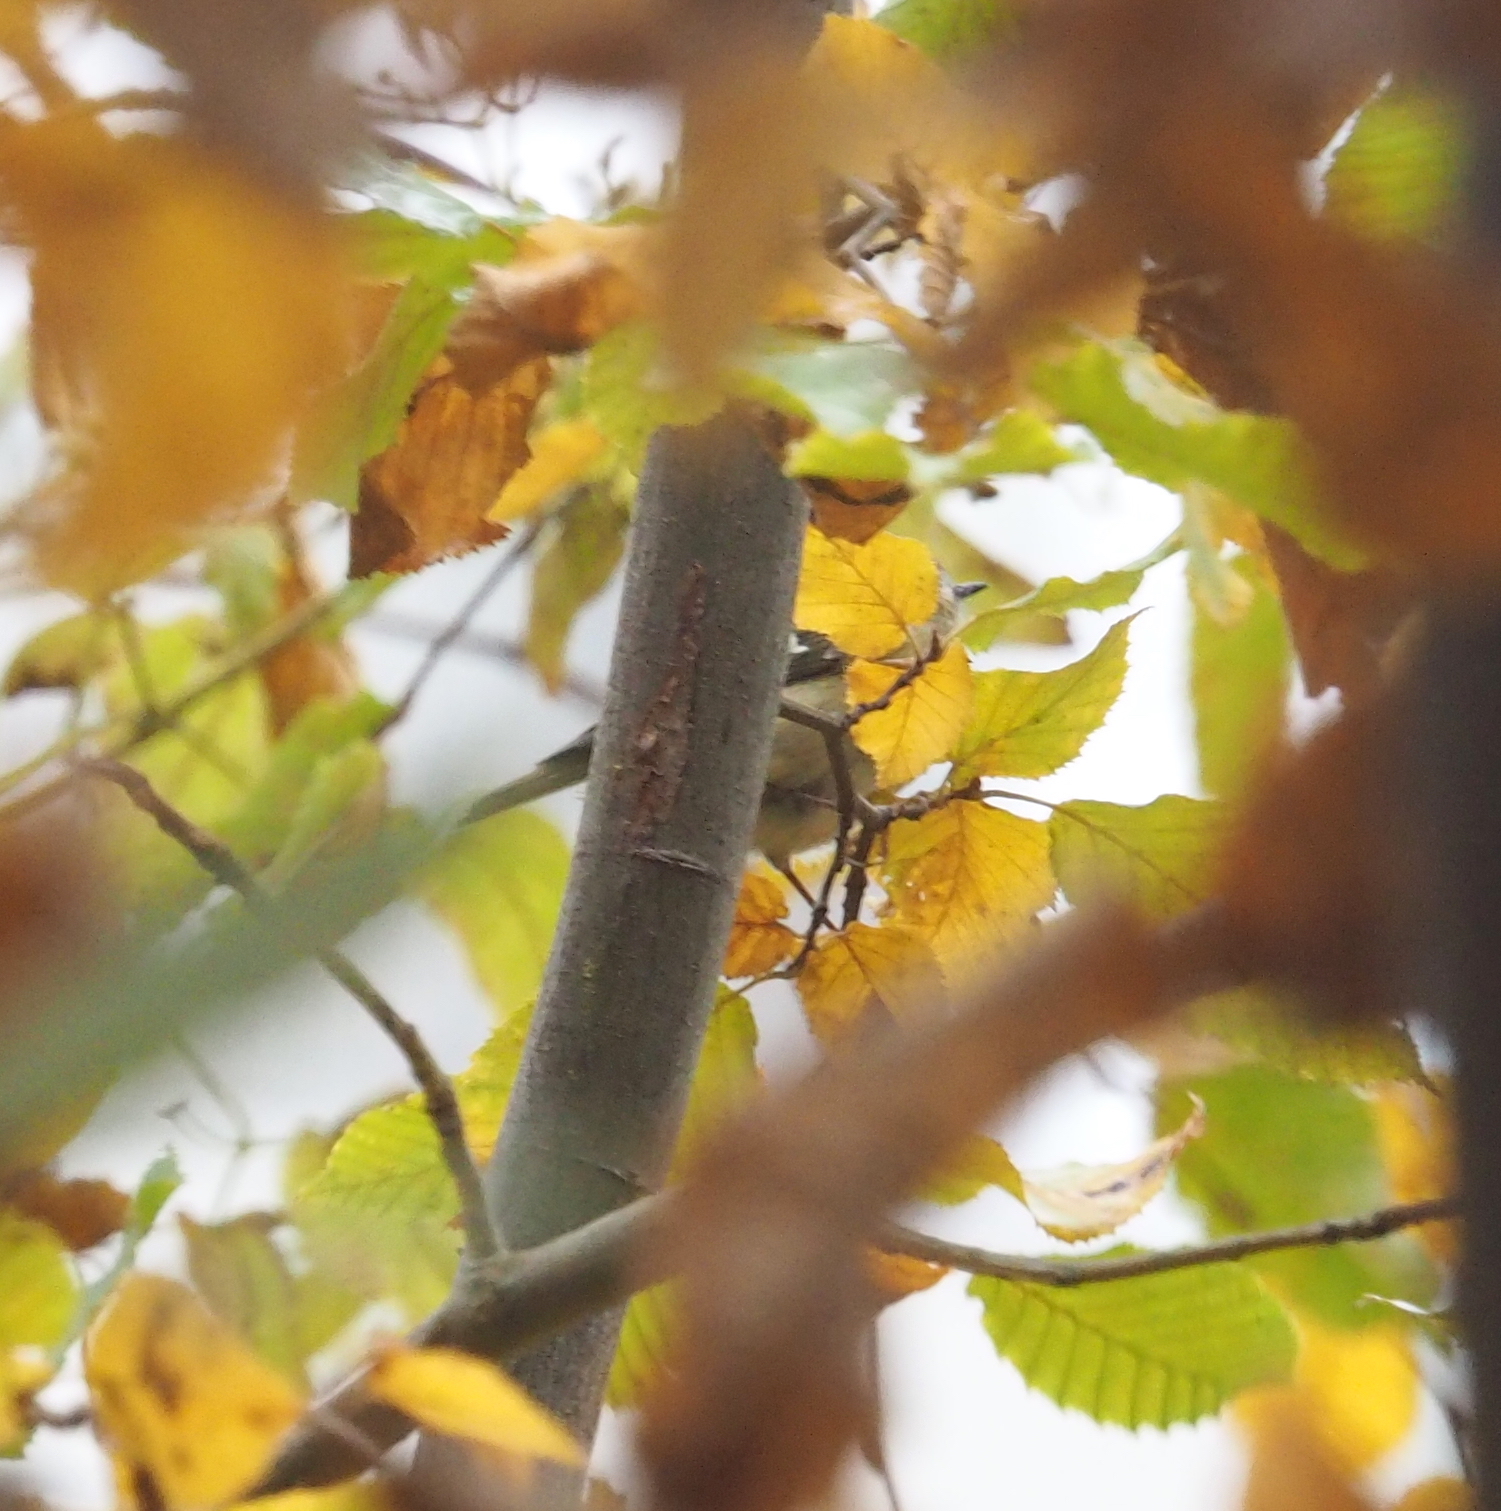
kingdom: Animalia
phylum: Chordata
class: Aves
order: Passeriformes
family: Regulidae
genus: Regulus
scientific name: Regulus regulus
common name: Goldcrest
